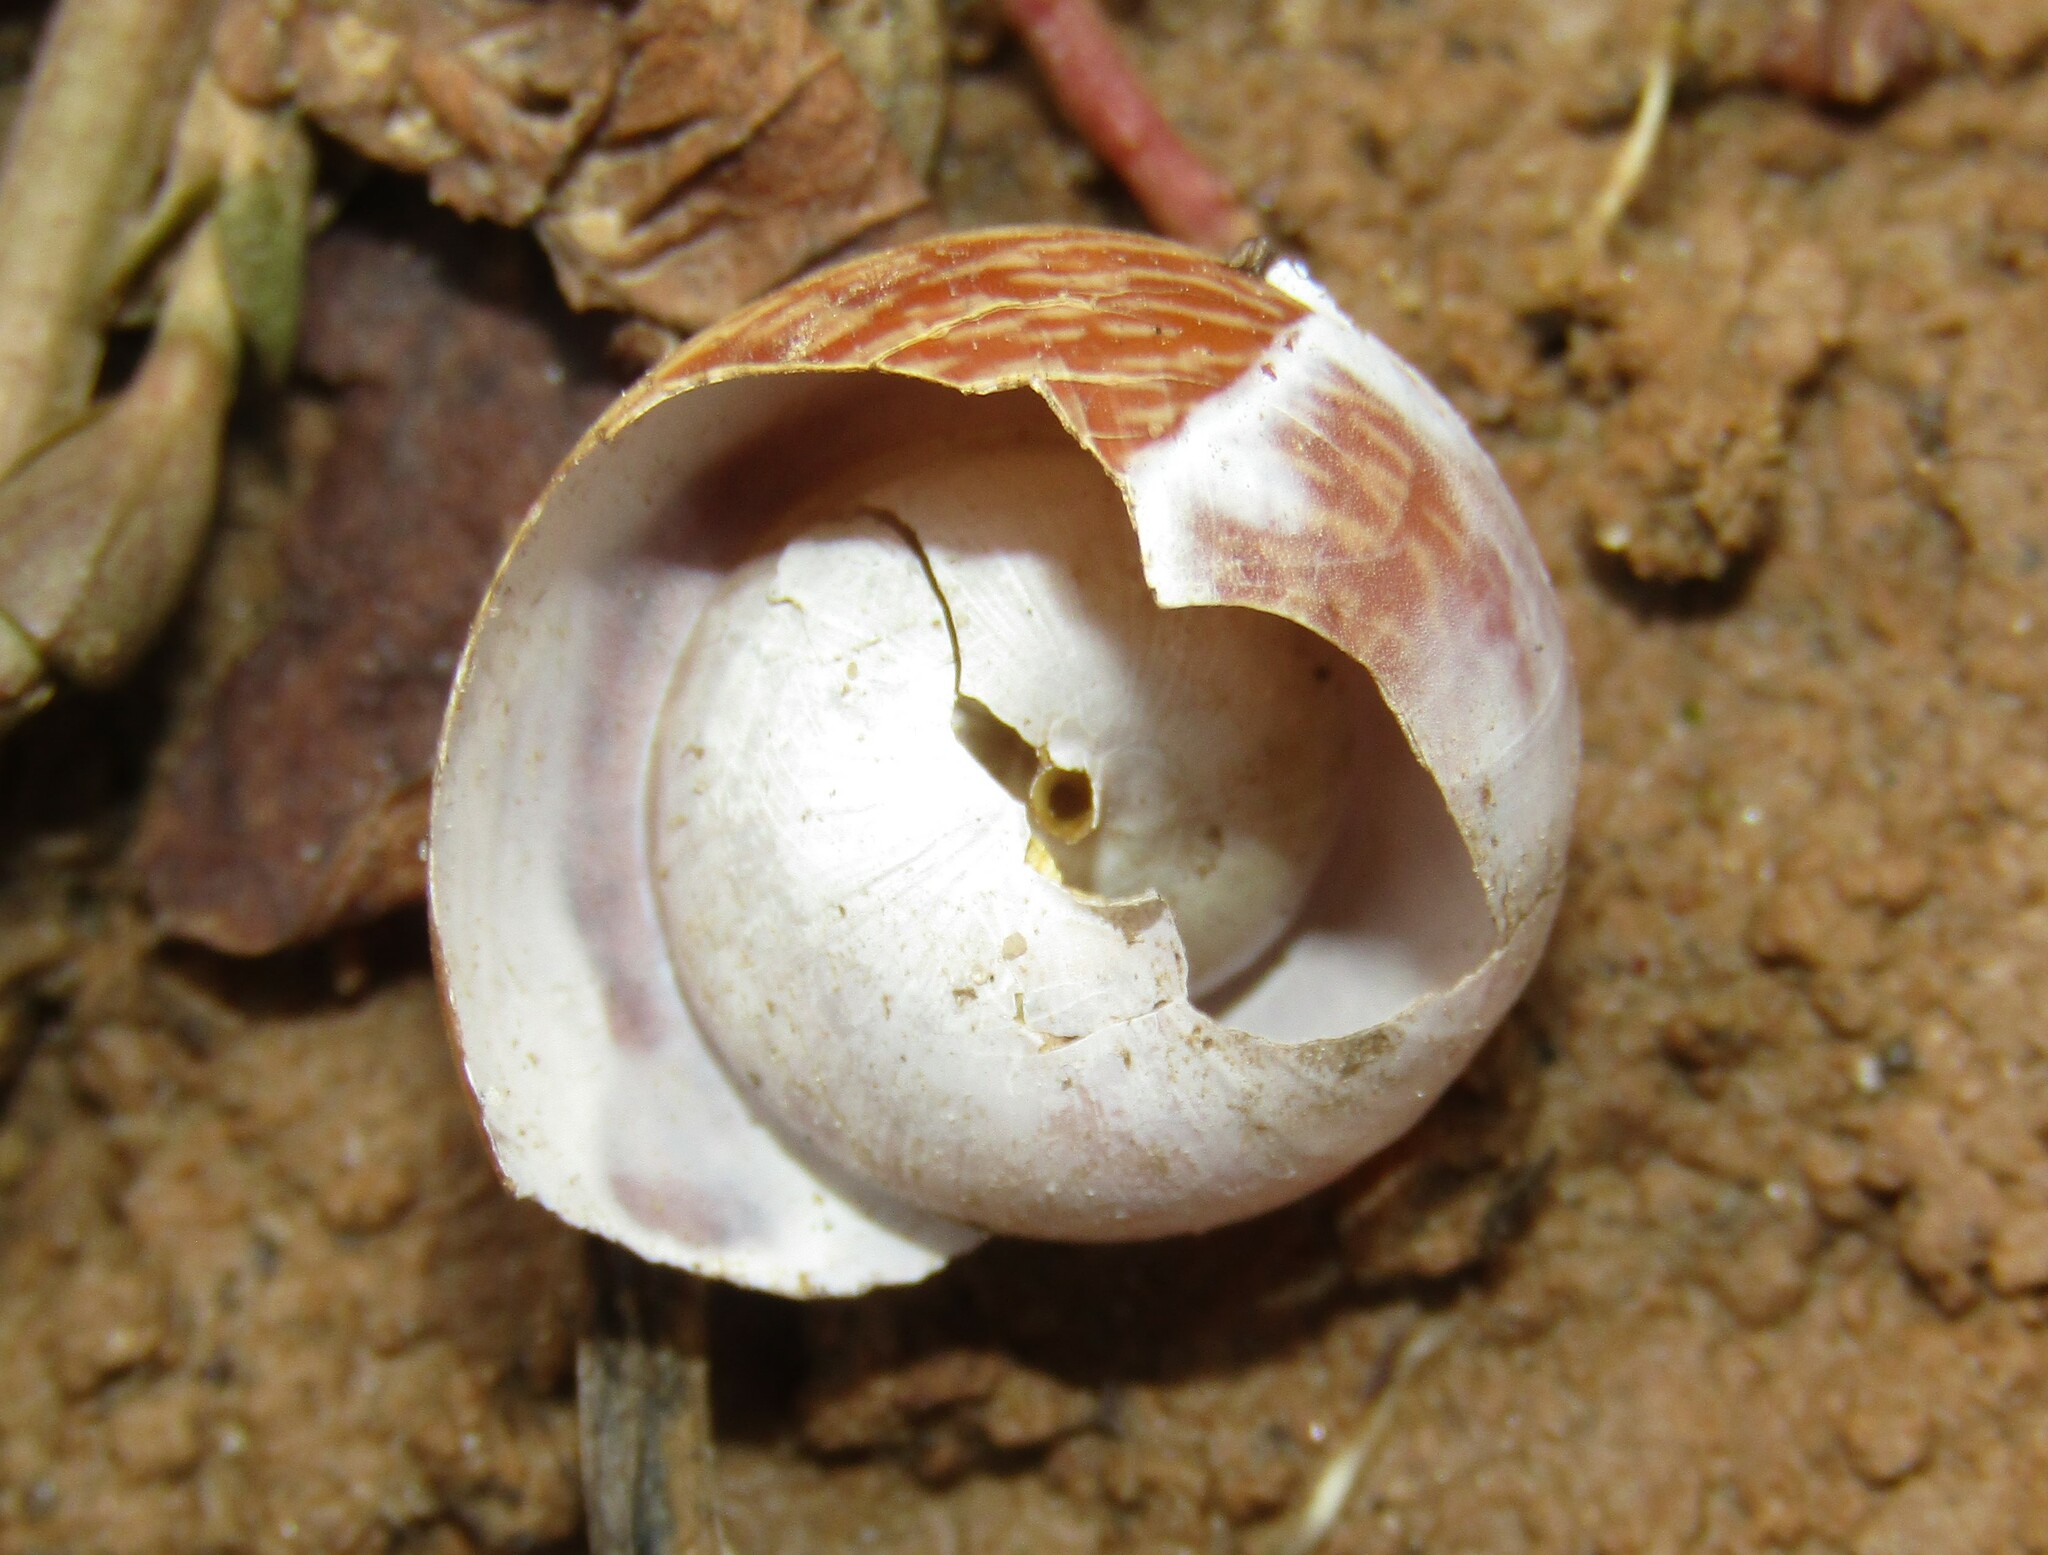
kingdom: Animalia
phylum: Mollusca
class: Gastropoda
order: Stylommatophora
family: Helicidae
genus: Arianta
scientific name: Arianta arbustorum
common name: Copse snail
